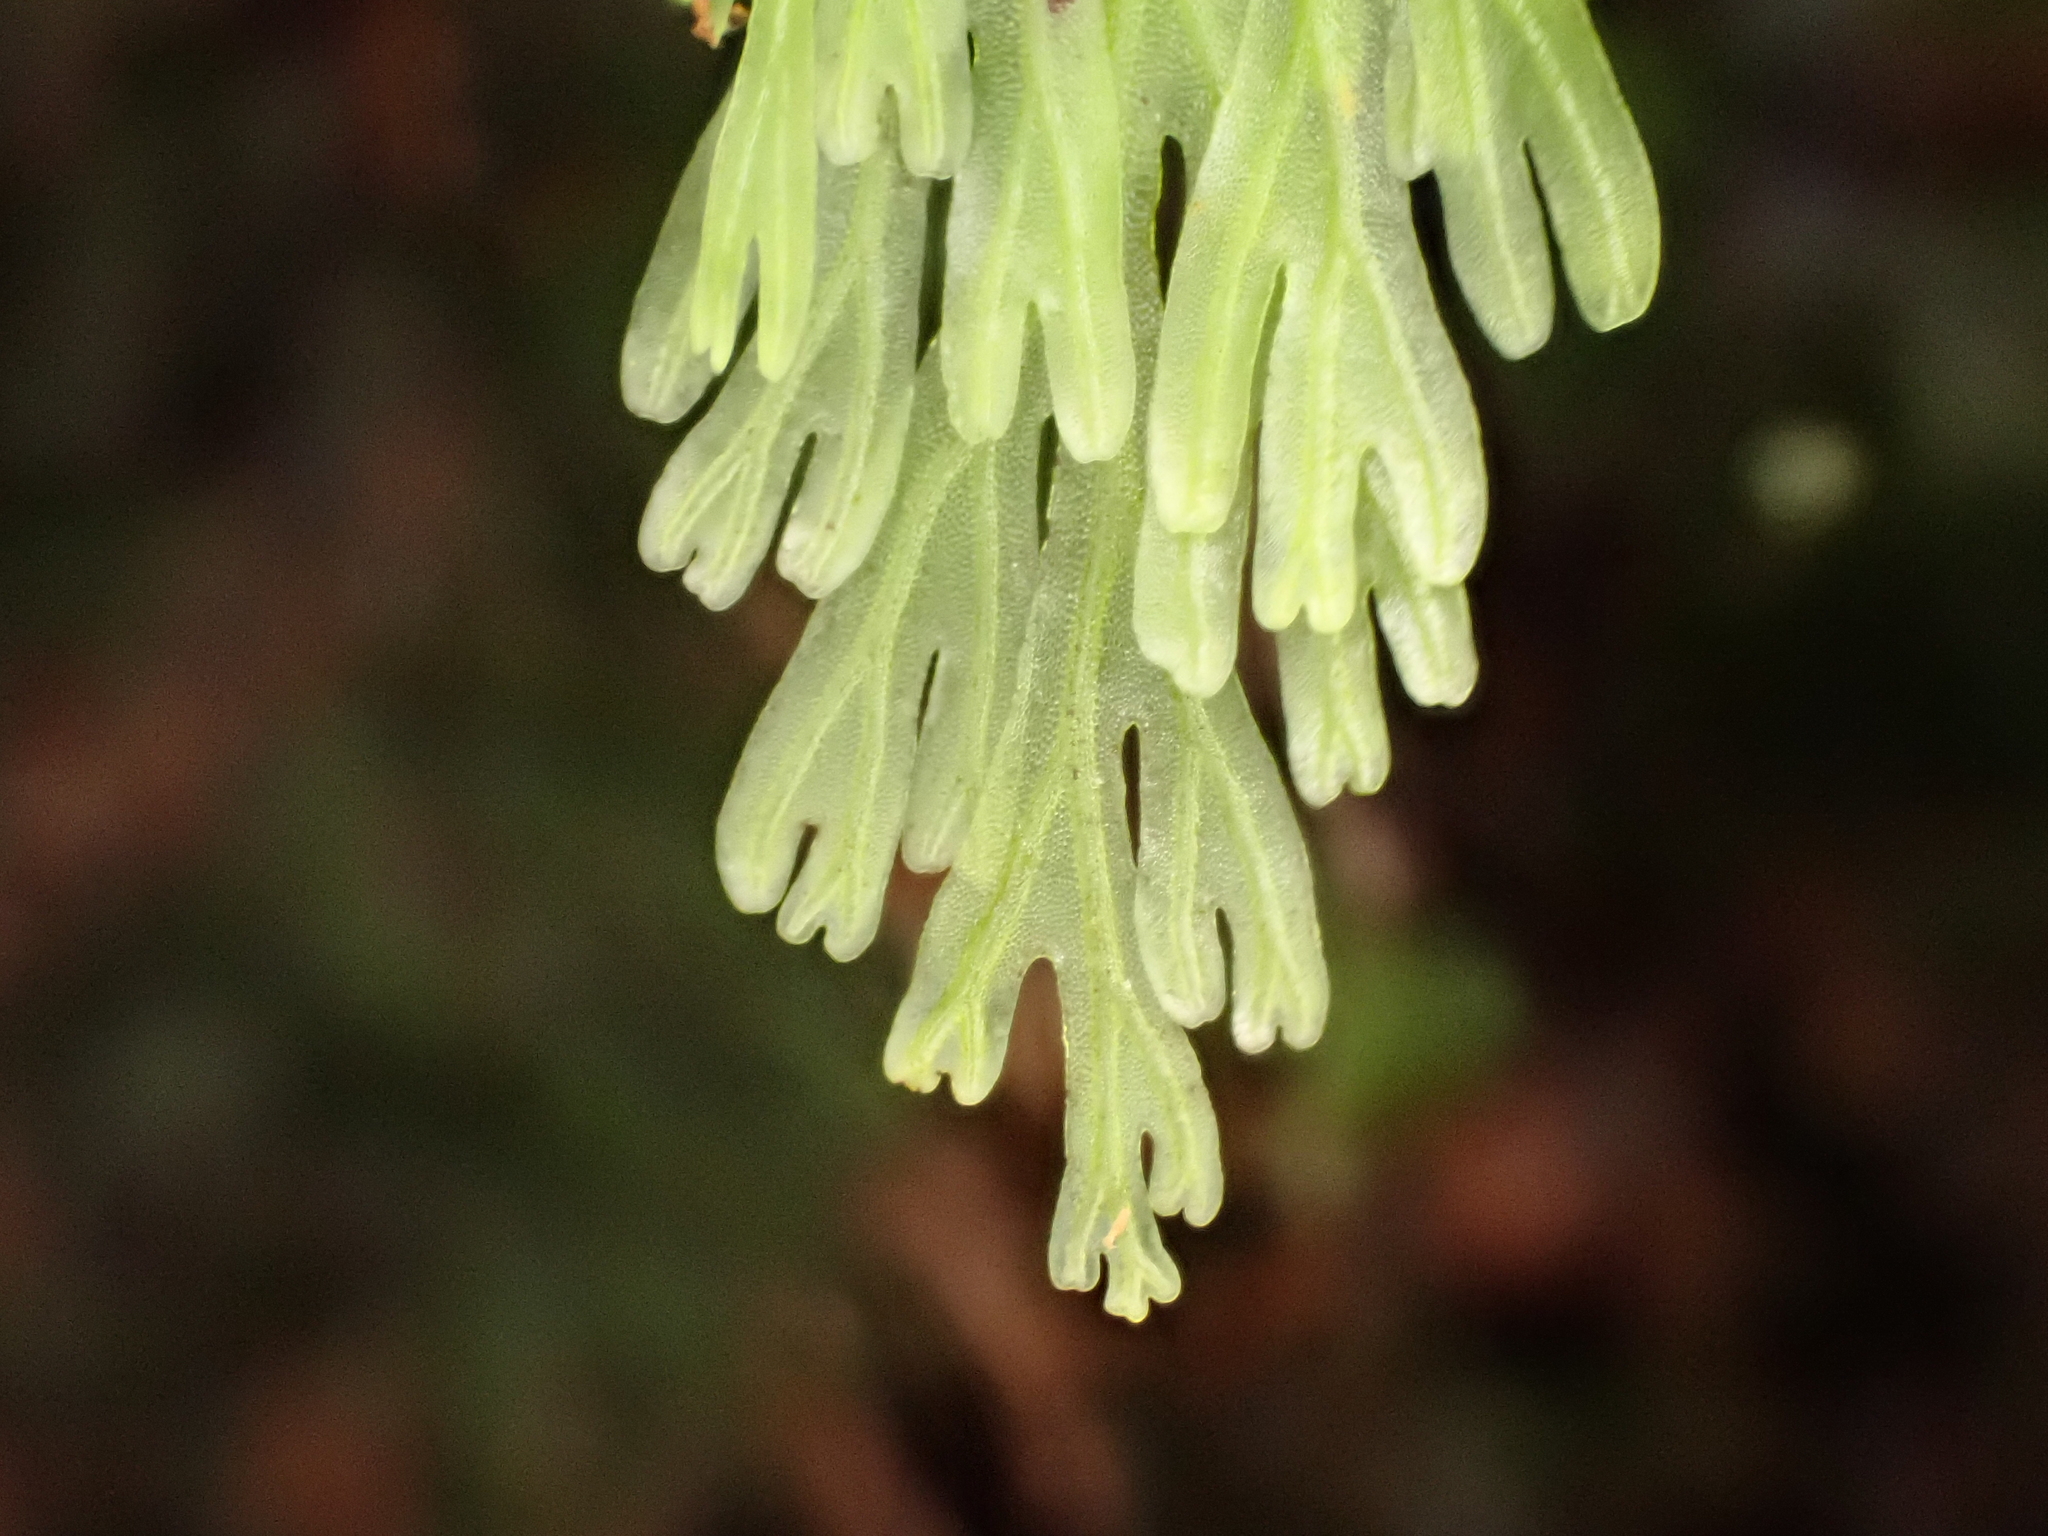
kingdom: Plantae
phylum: Tracheophyta
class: Polypodiopsida
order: Hymenophyllales
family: Hymenophyllaceae
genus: Hymenophyllum
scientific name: Hymenophyllum flabellatum
